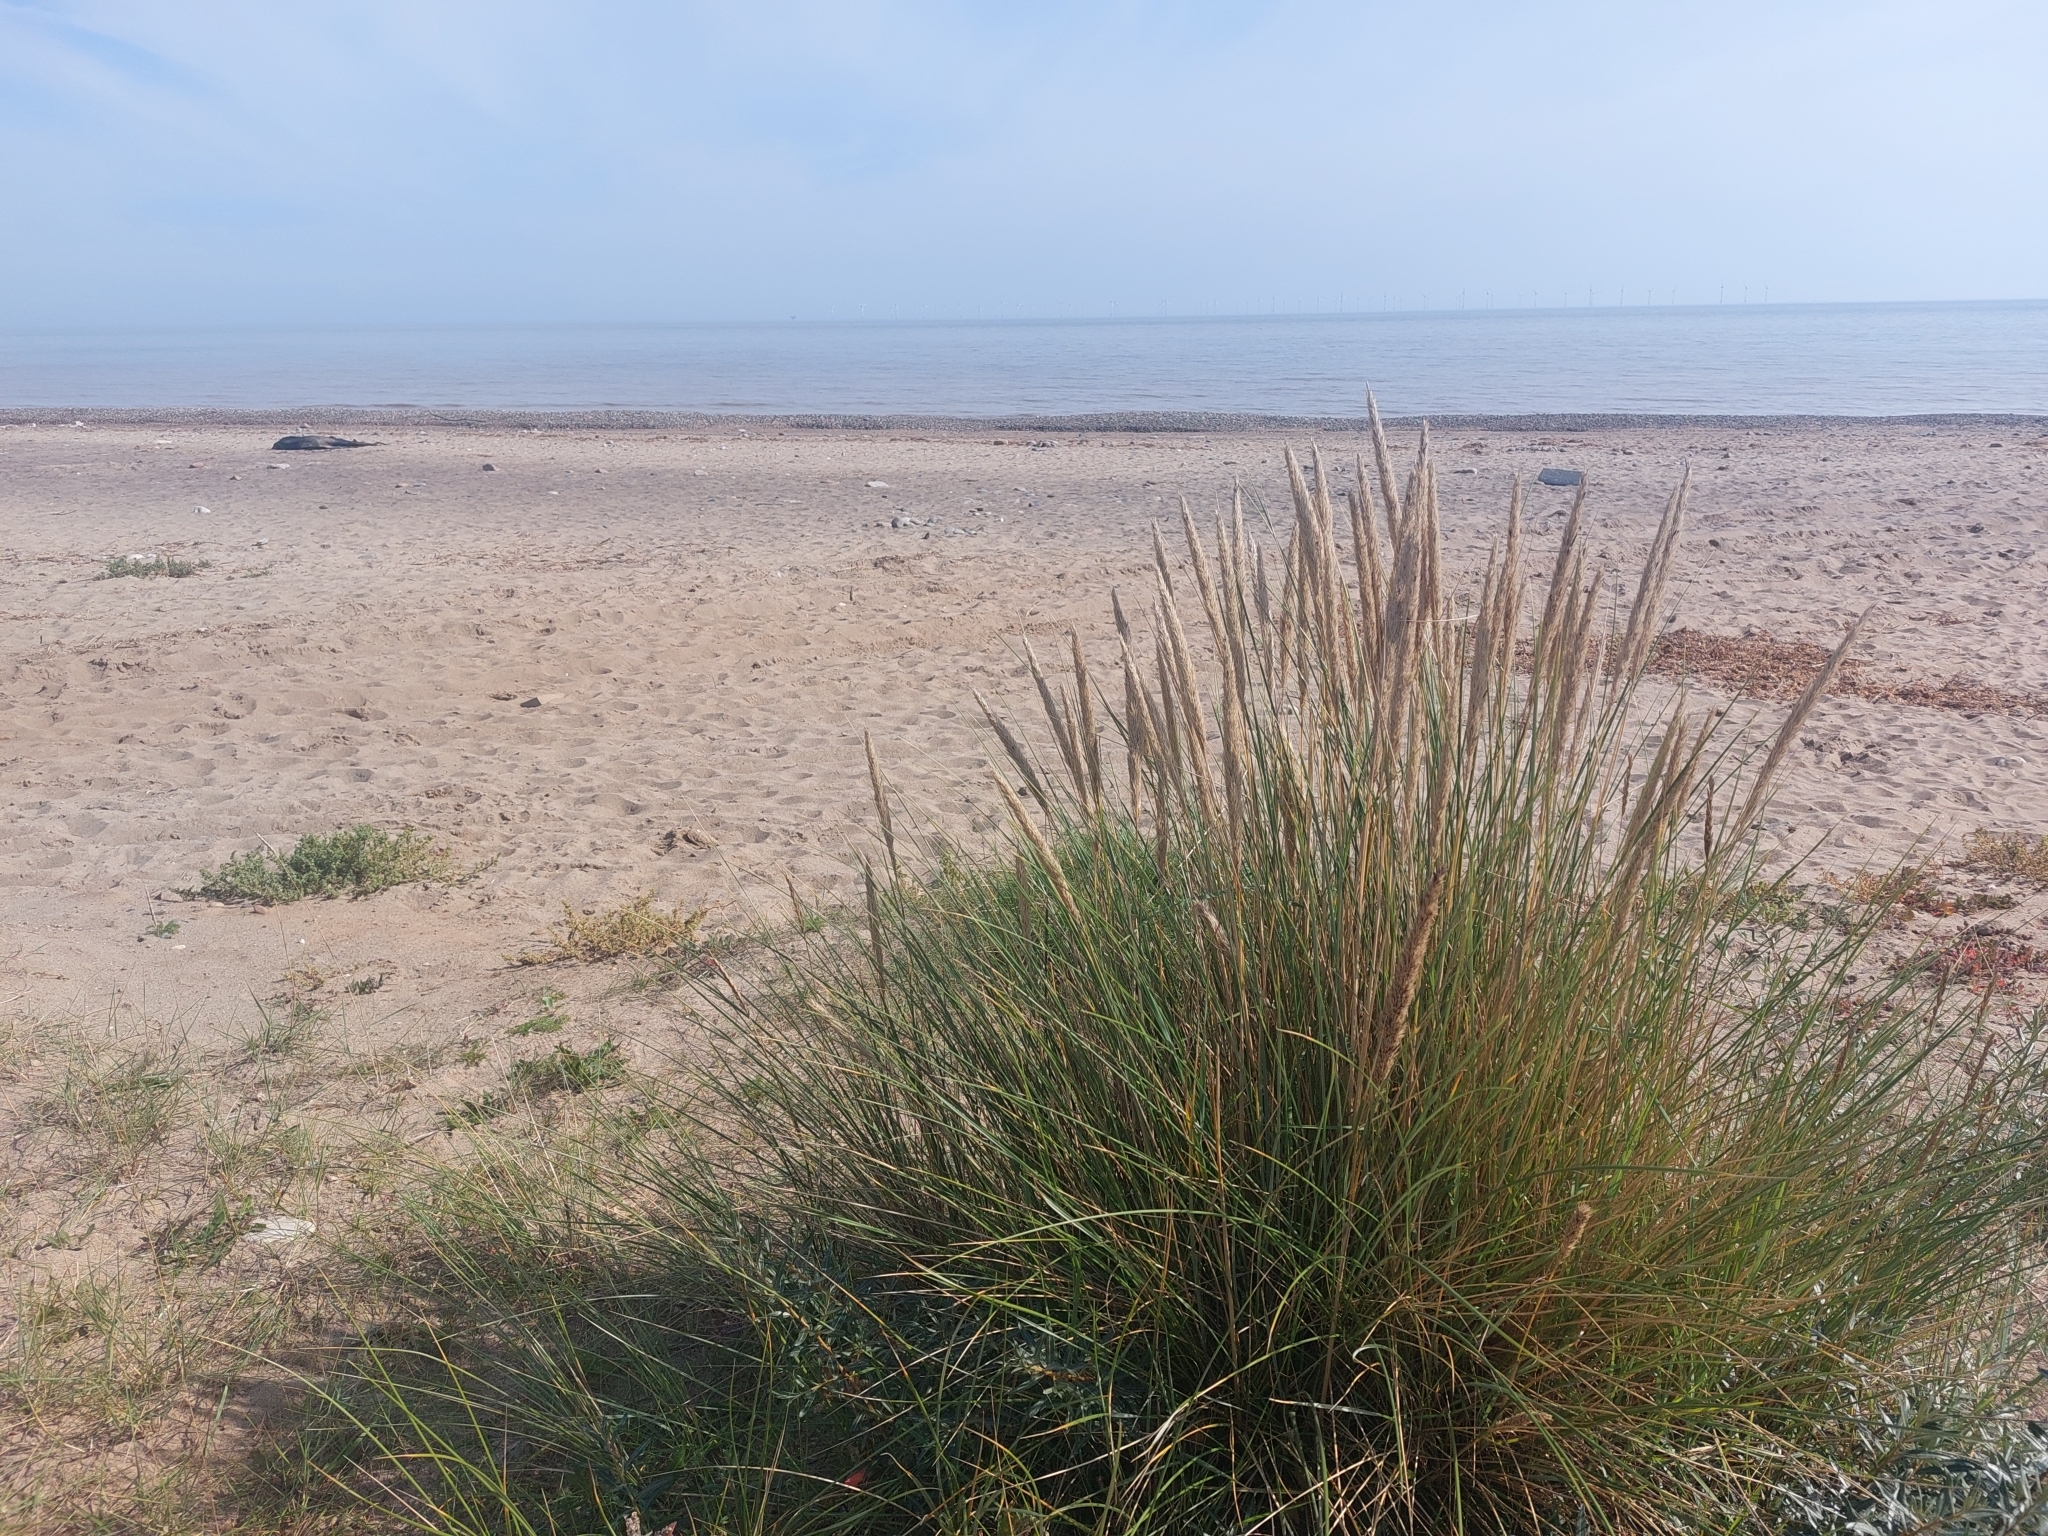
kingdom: Plantae
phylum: Tracheophyta
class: Liliopsida
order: Poales
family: Poaceae
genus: Calamagrostis
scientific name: Calamagrostis arenaria
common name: European beachgrass
